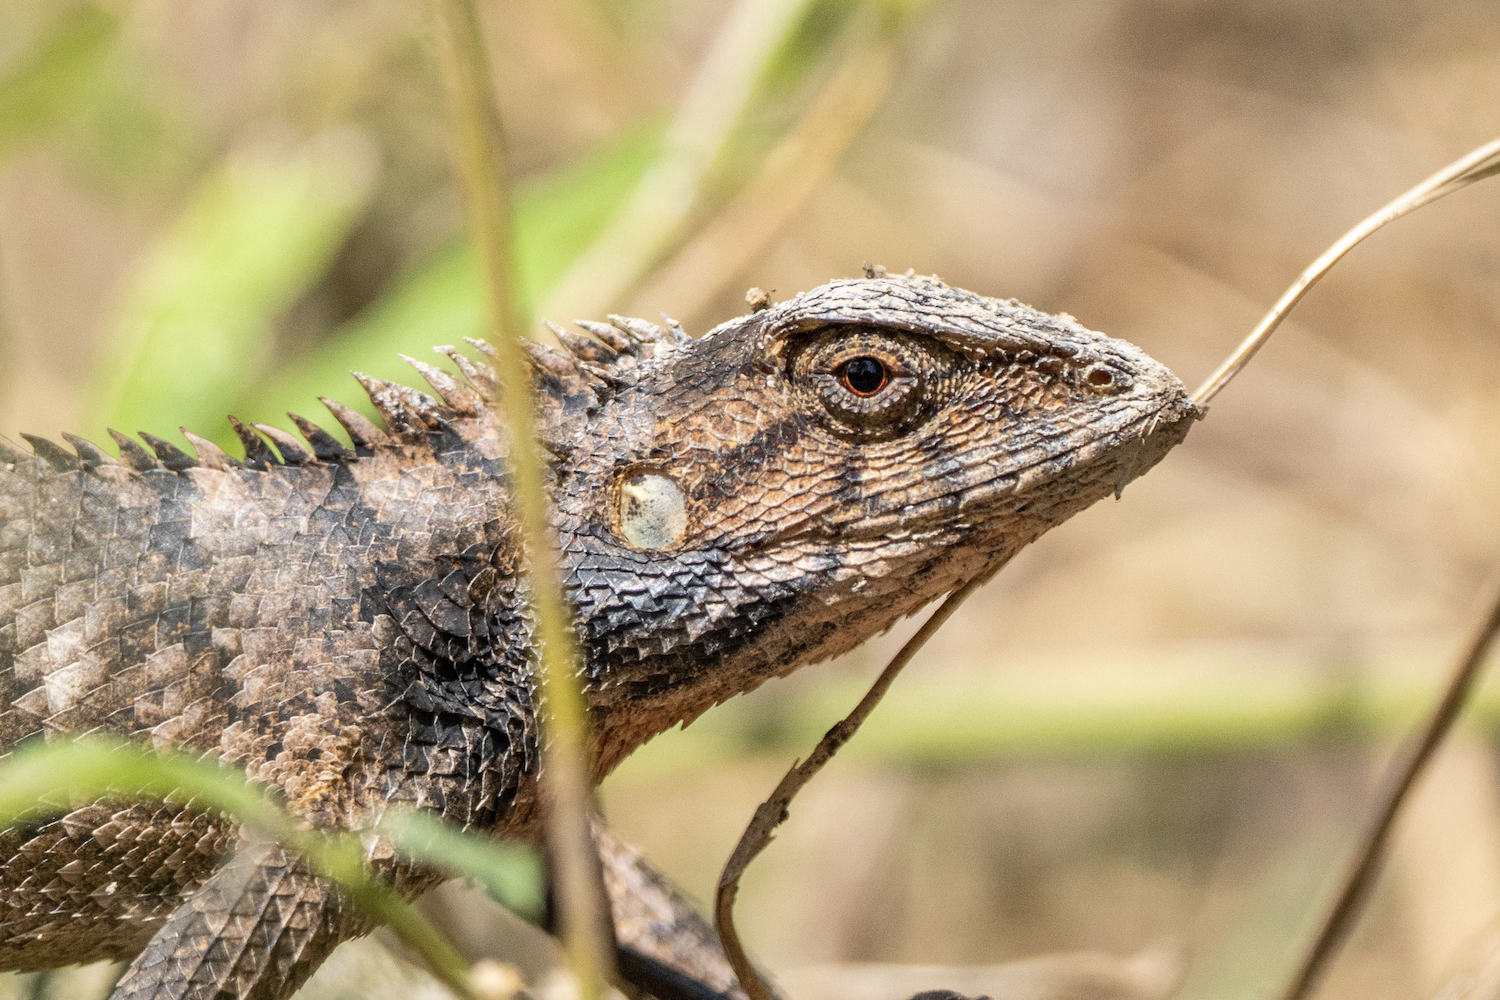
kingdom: Animalia
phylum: Chordata
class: Squamata
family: Agamidae
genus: Calotes
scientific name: Calotes versicolor
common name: Oriental garden lizard
